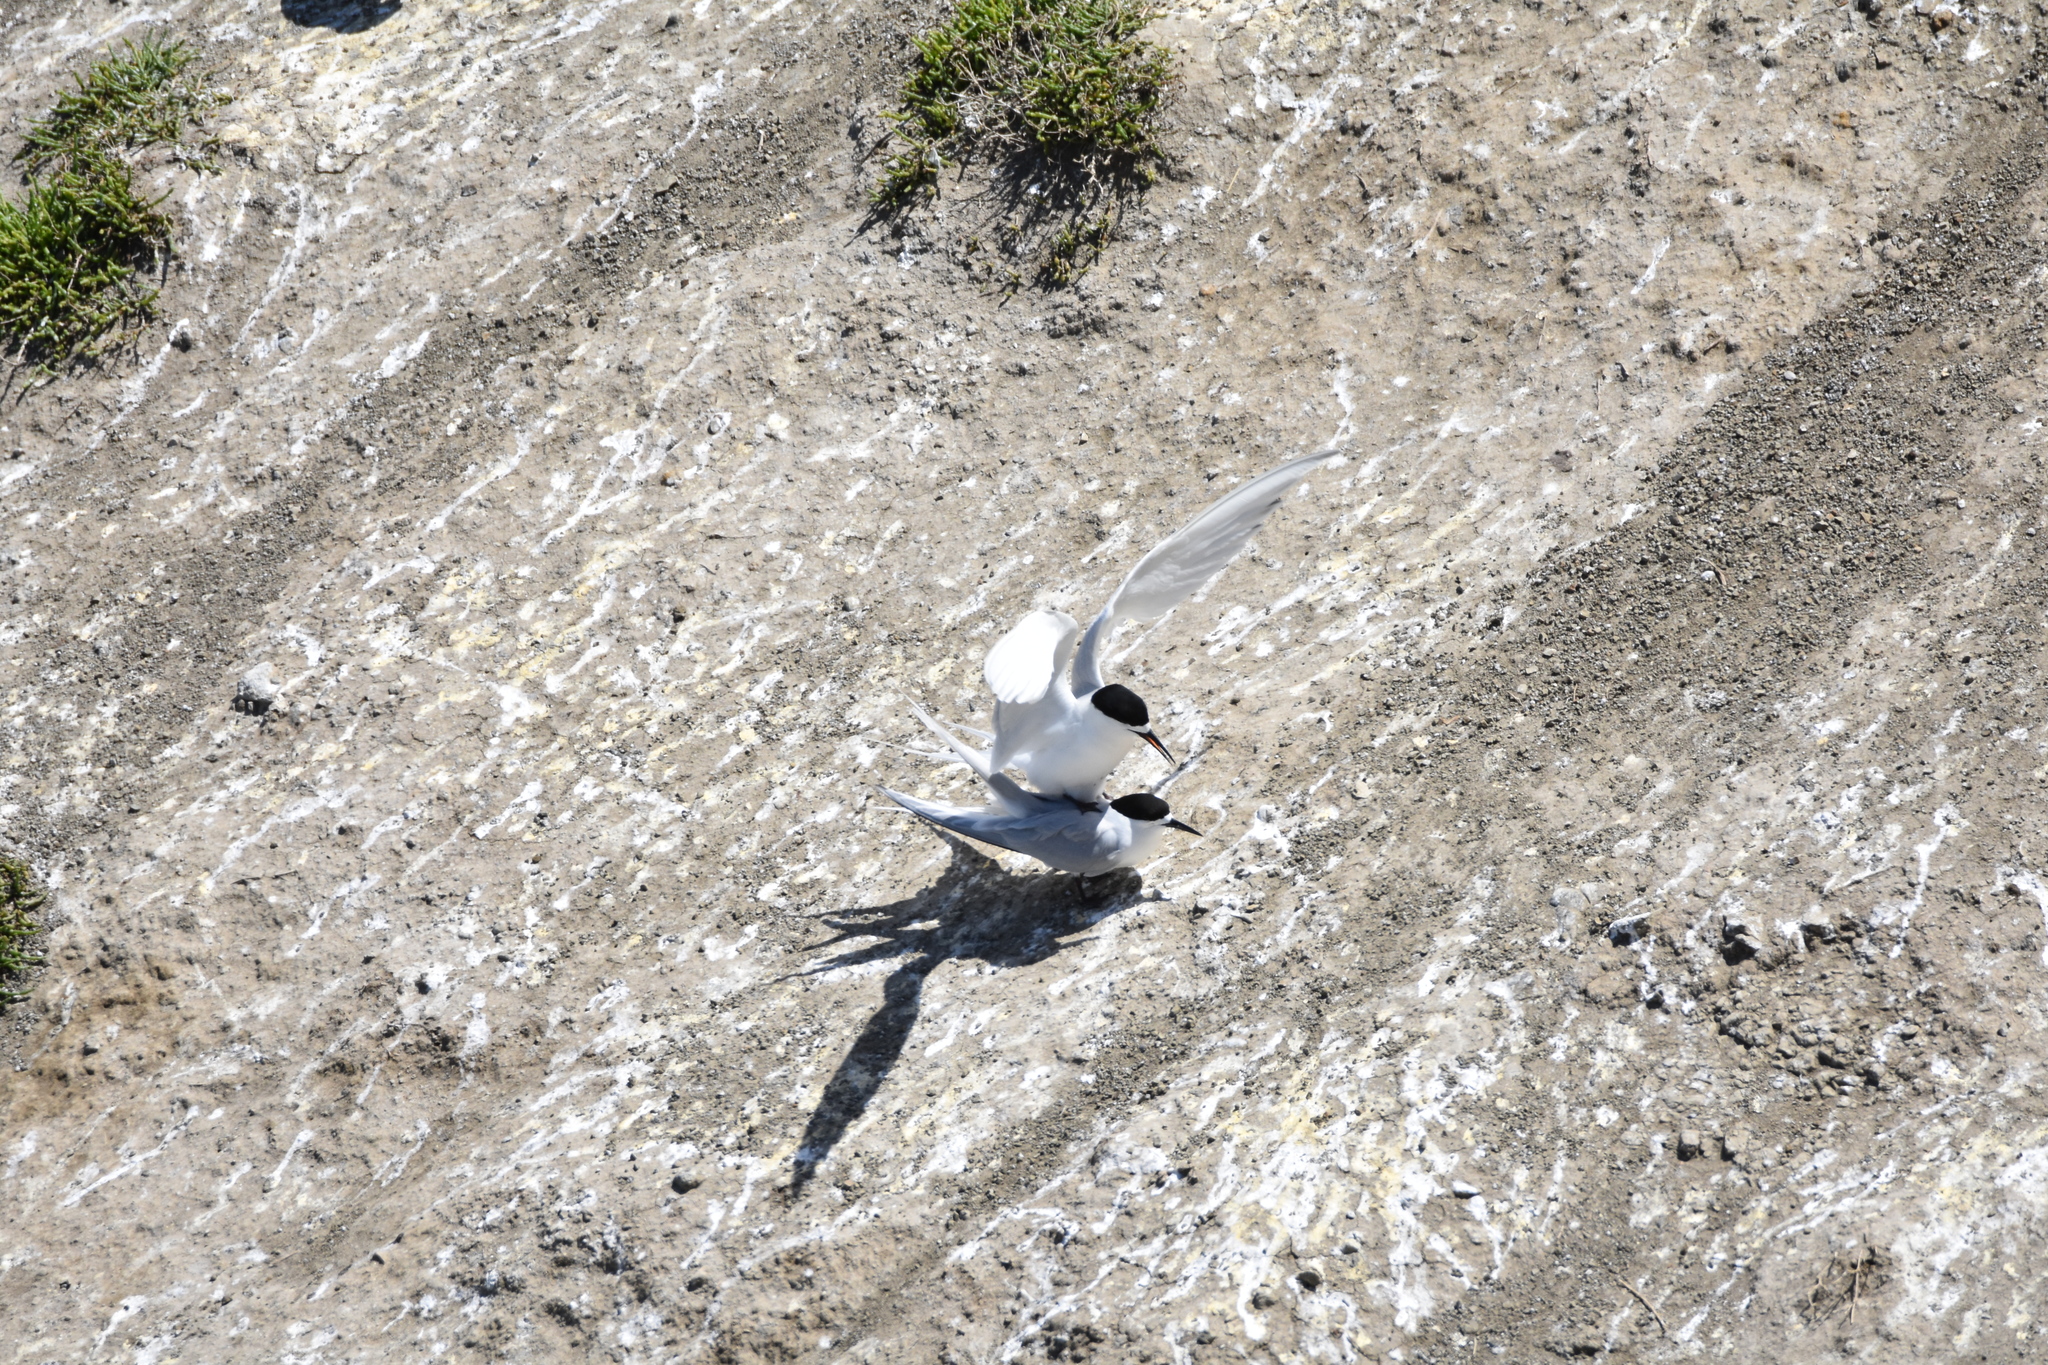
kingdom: Animalia
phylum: Chordata
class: Aves
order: Charadriiformes
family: Laridae
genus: Sterna
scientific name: Sterna striata
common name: White-fronted tern
